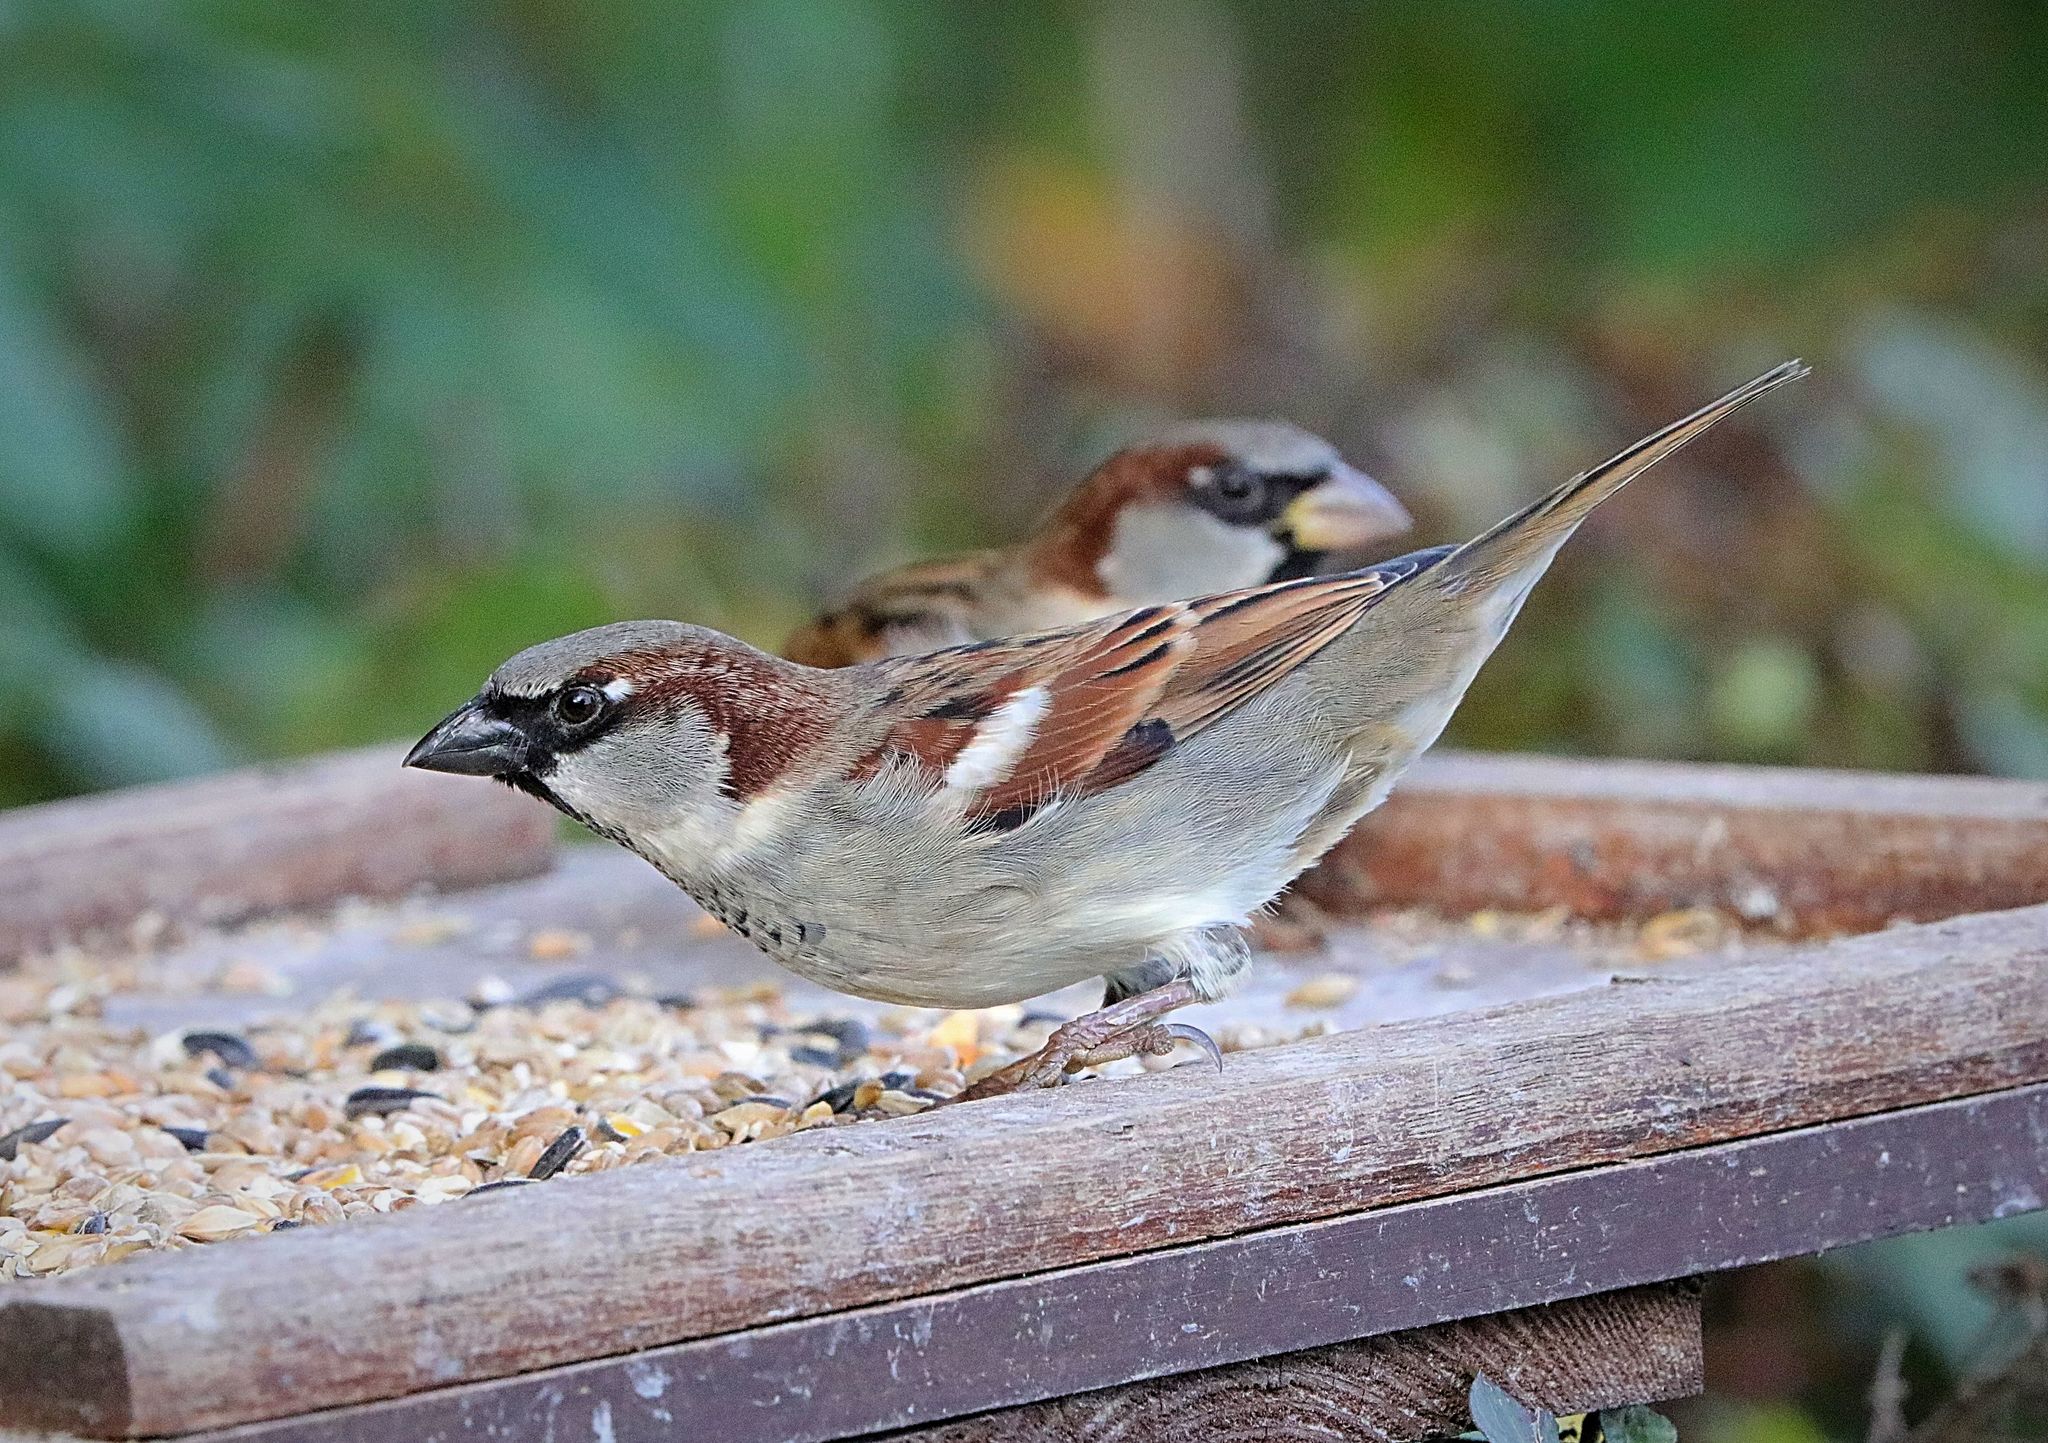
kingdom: Animalia
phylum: Chordata
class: Aves
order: Passeriformes
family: Passeridae
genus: Passer
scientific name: Passer domesticus
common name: House sparrow
